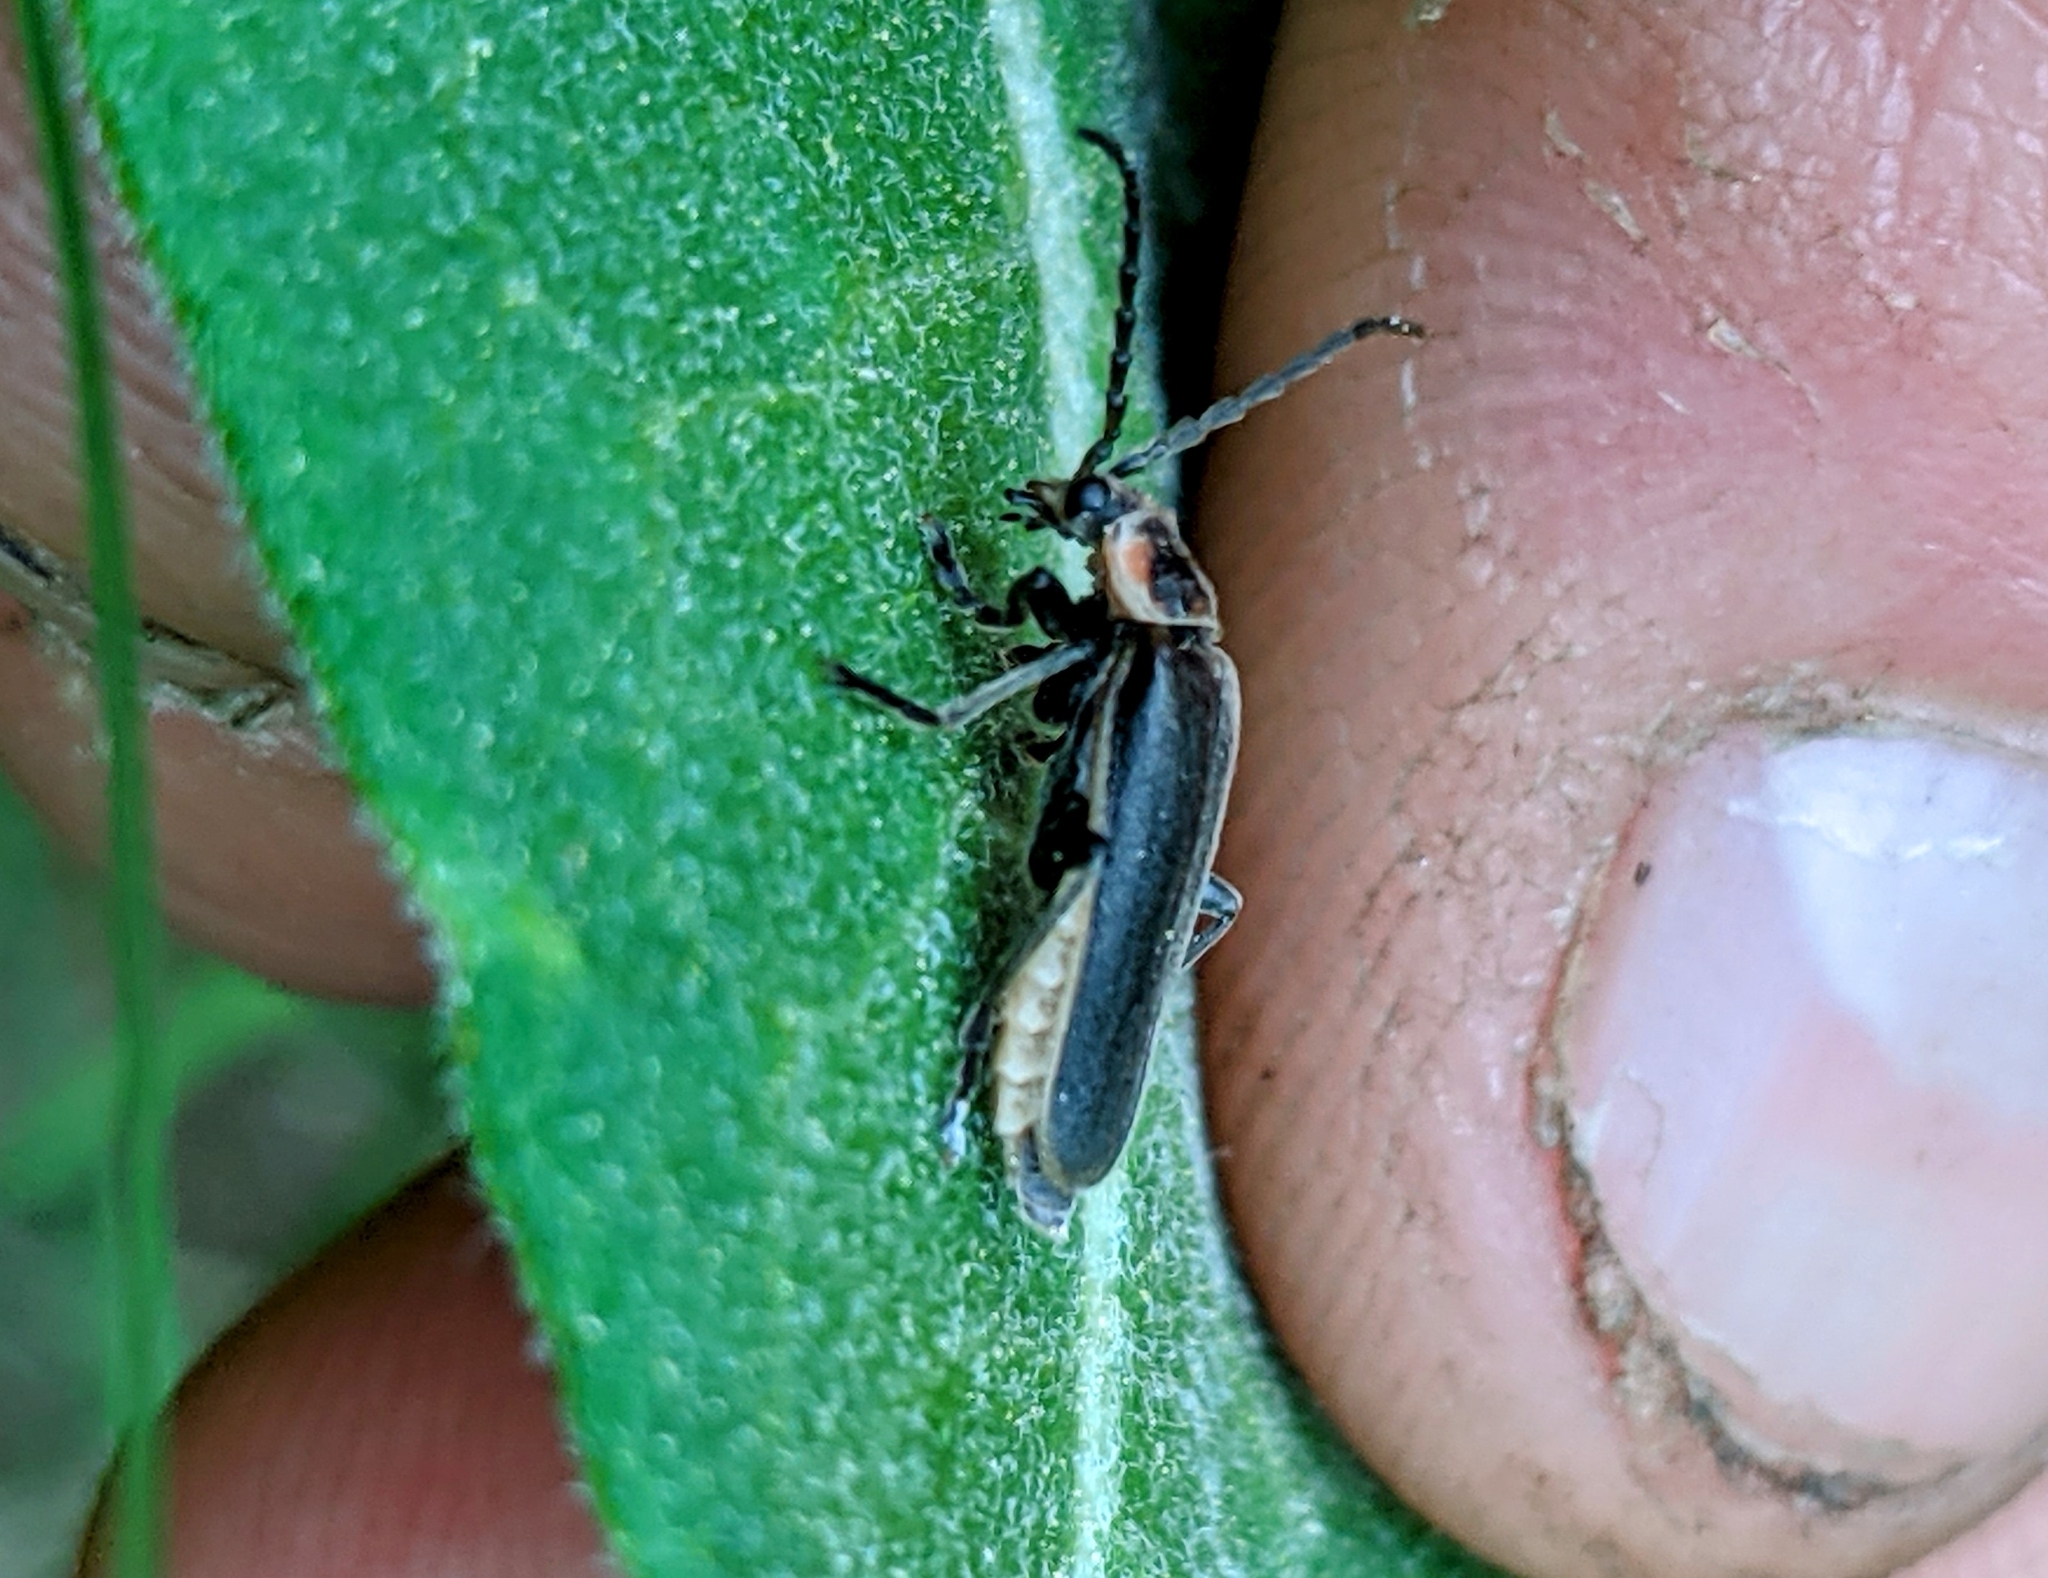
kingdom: Animalia
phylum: Arthropoda
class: Insecta
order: Coleoptera
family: Cantharidae
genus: Atalantycha
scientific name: Atalantycha dentigera
